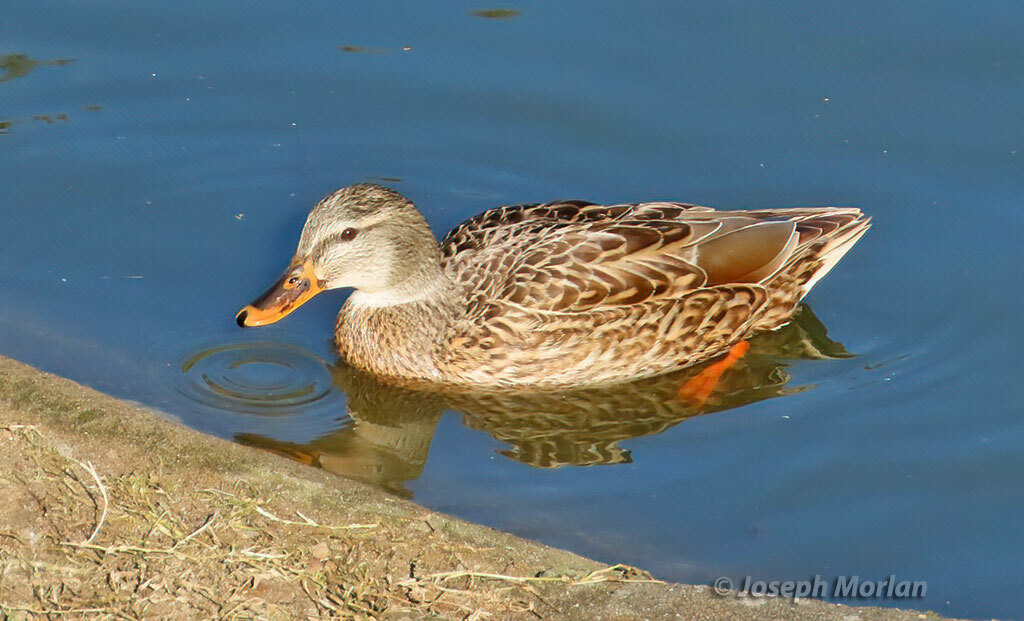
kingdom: Animalia
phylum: Chordata
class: Aves
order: Anseriformes
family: Anatidae
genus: Anas
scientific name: Anas platyrhynchos
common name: Mallard
